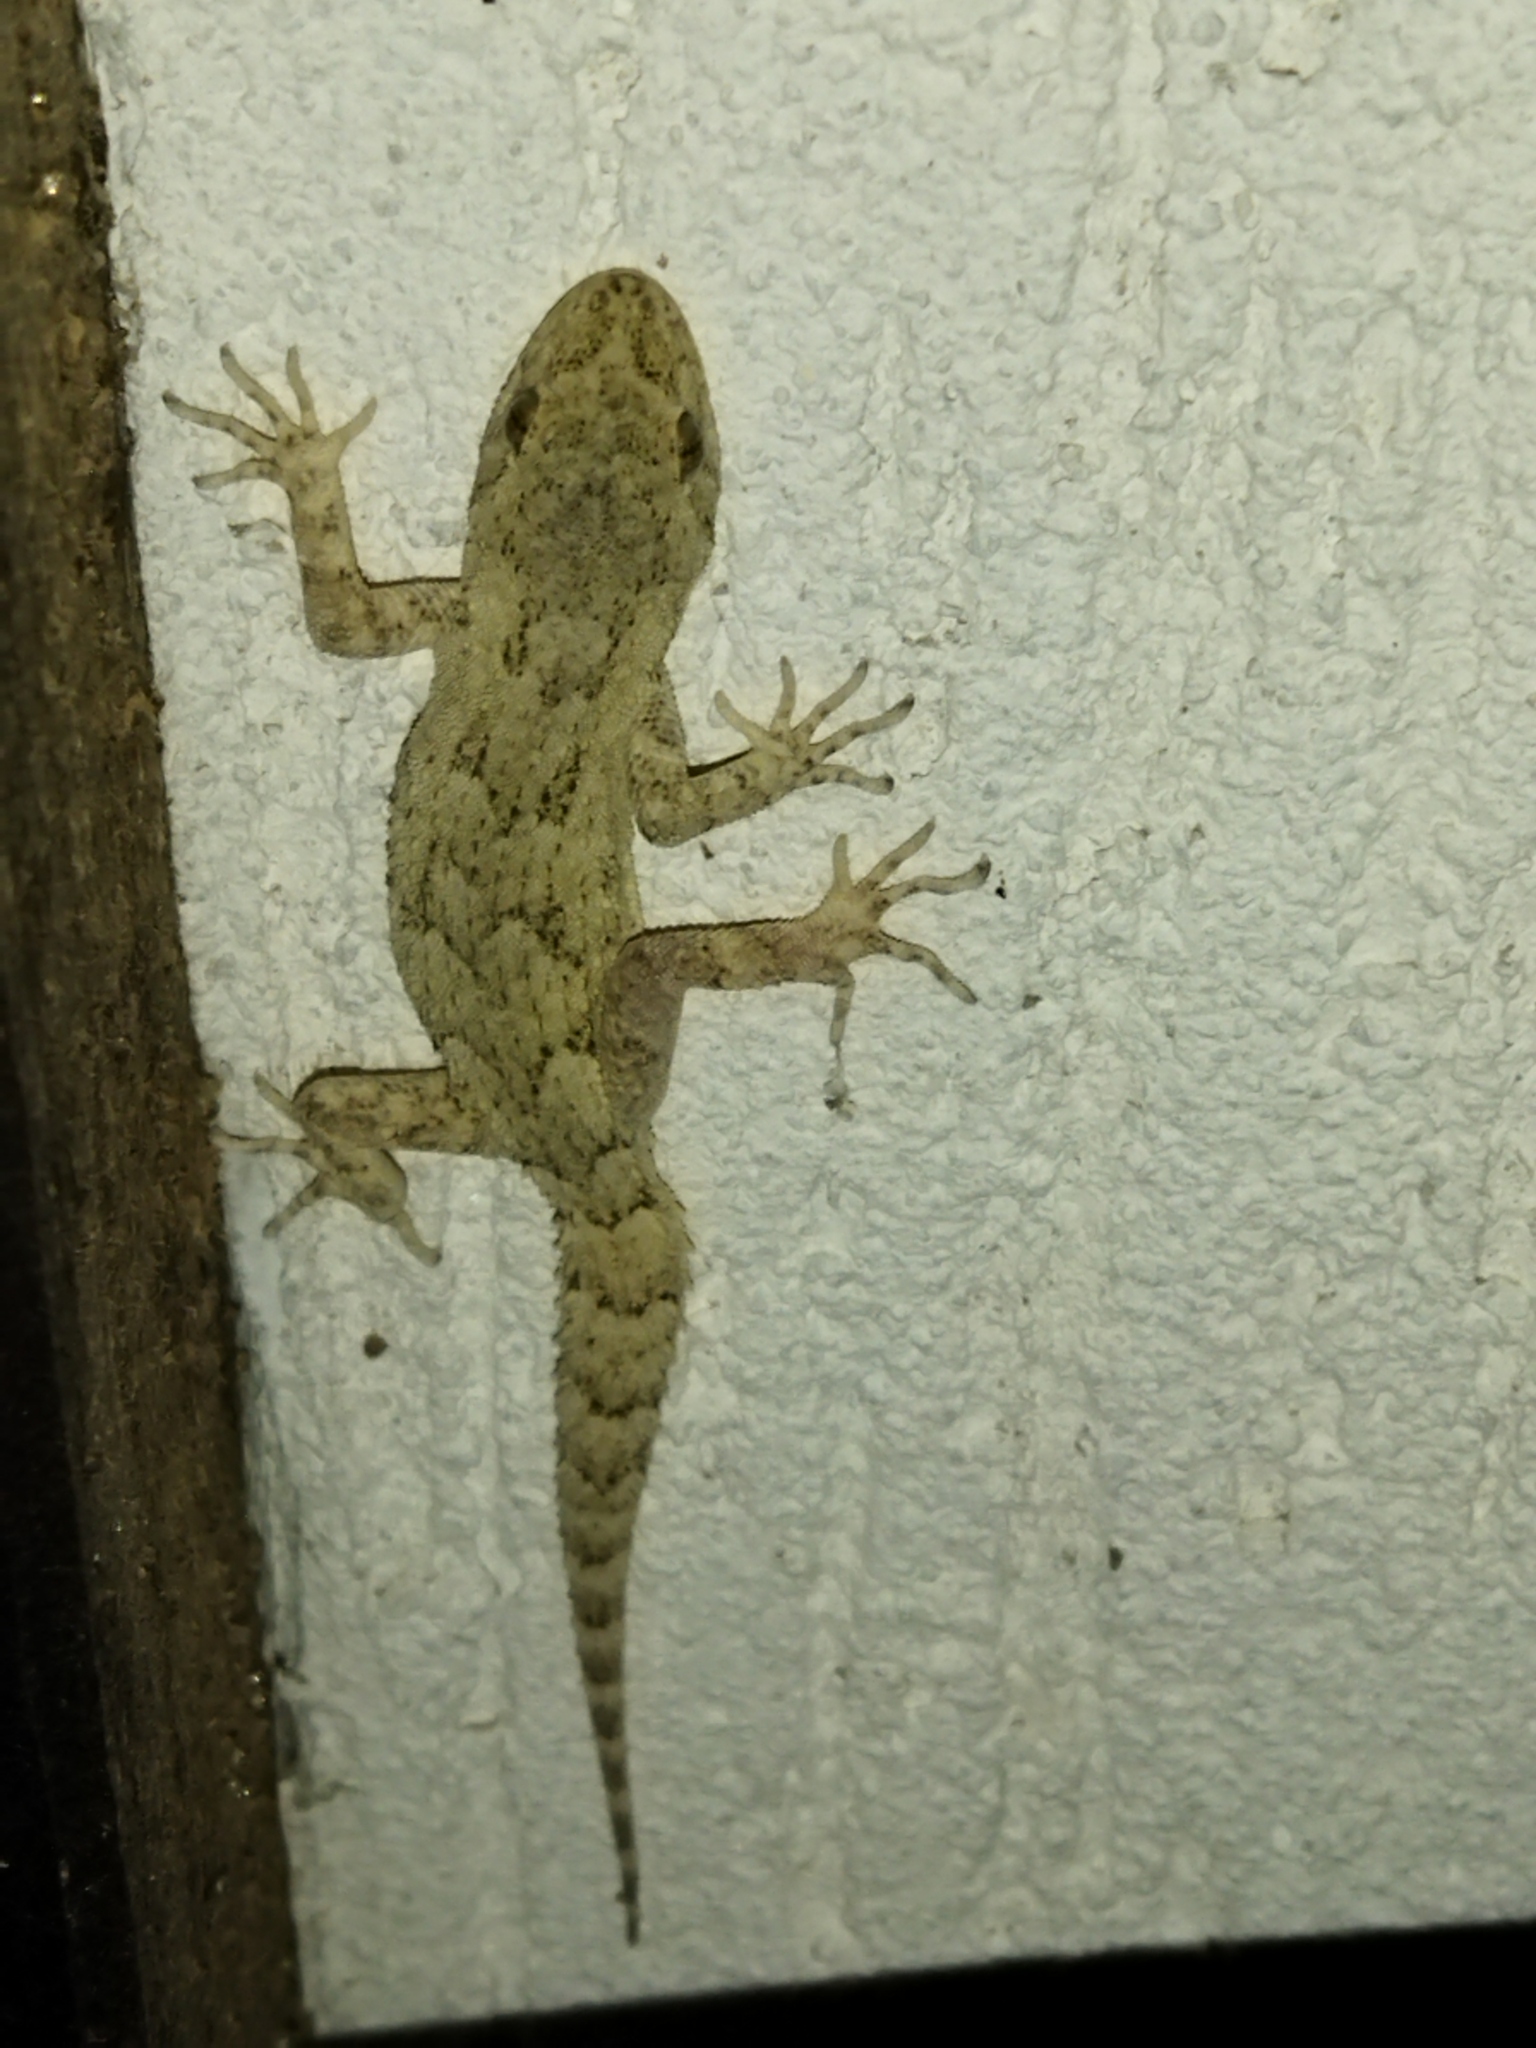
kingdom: Animalia
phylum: Chordata
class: Squamata
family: Gekkonidae
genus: Mediodactylus
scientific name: Mediodactylus kotschyi
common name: Kotschy's gecko
